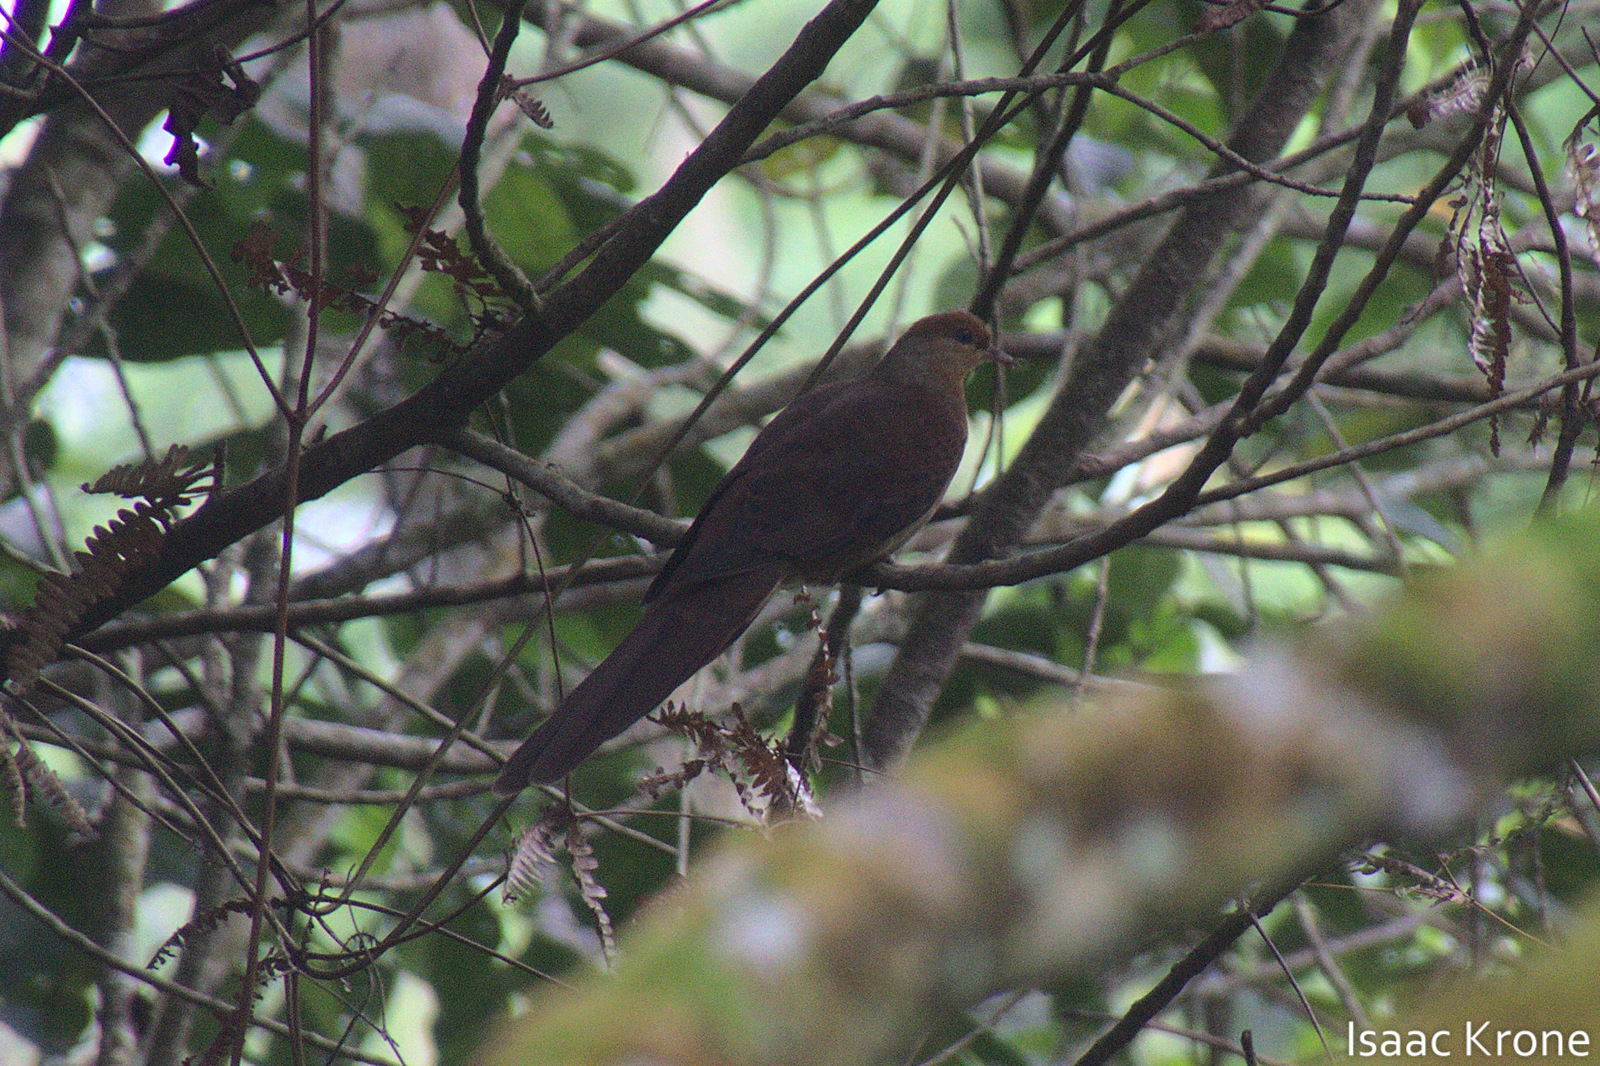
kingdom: Animalia
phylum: Chordata
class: Aves
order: Columbiformes
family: Columbidae
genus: Macropygia
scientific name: Macropygia doreya
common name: Sultan's cuckoo-dove
